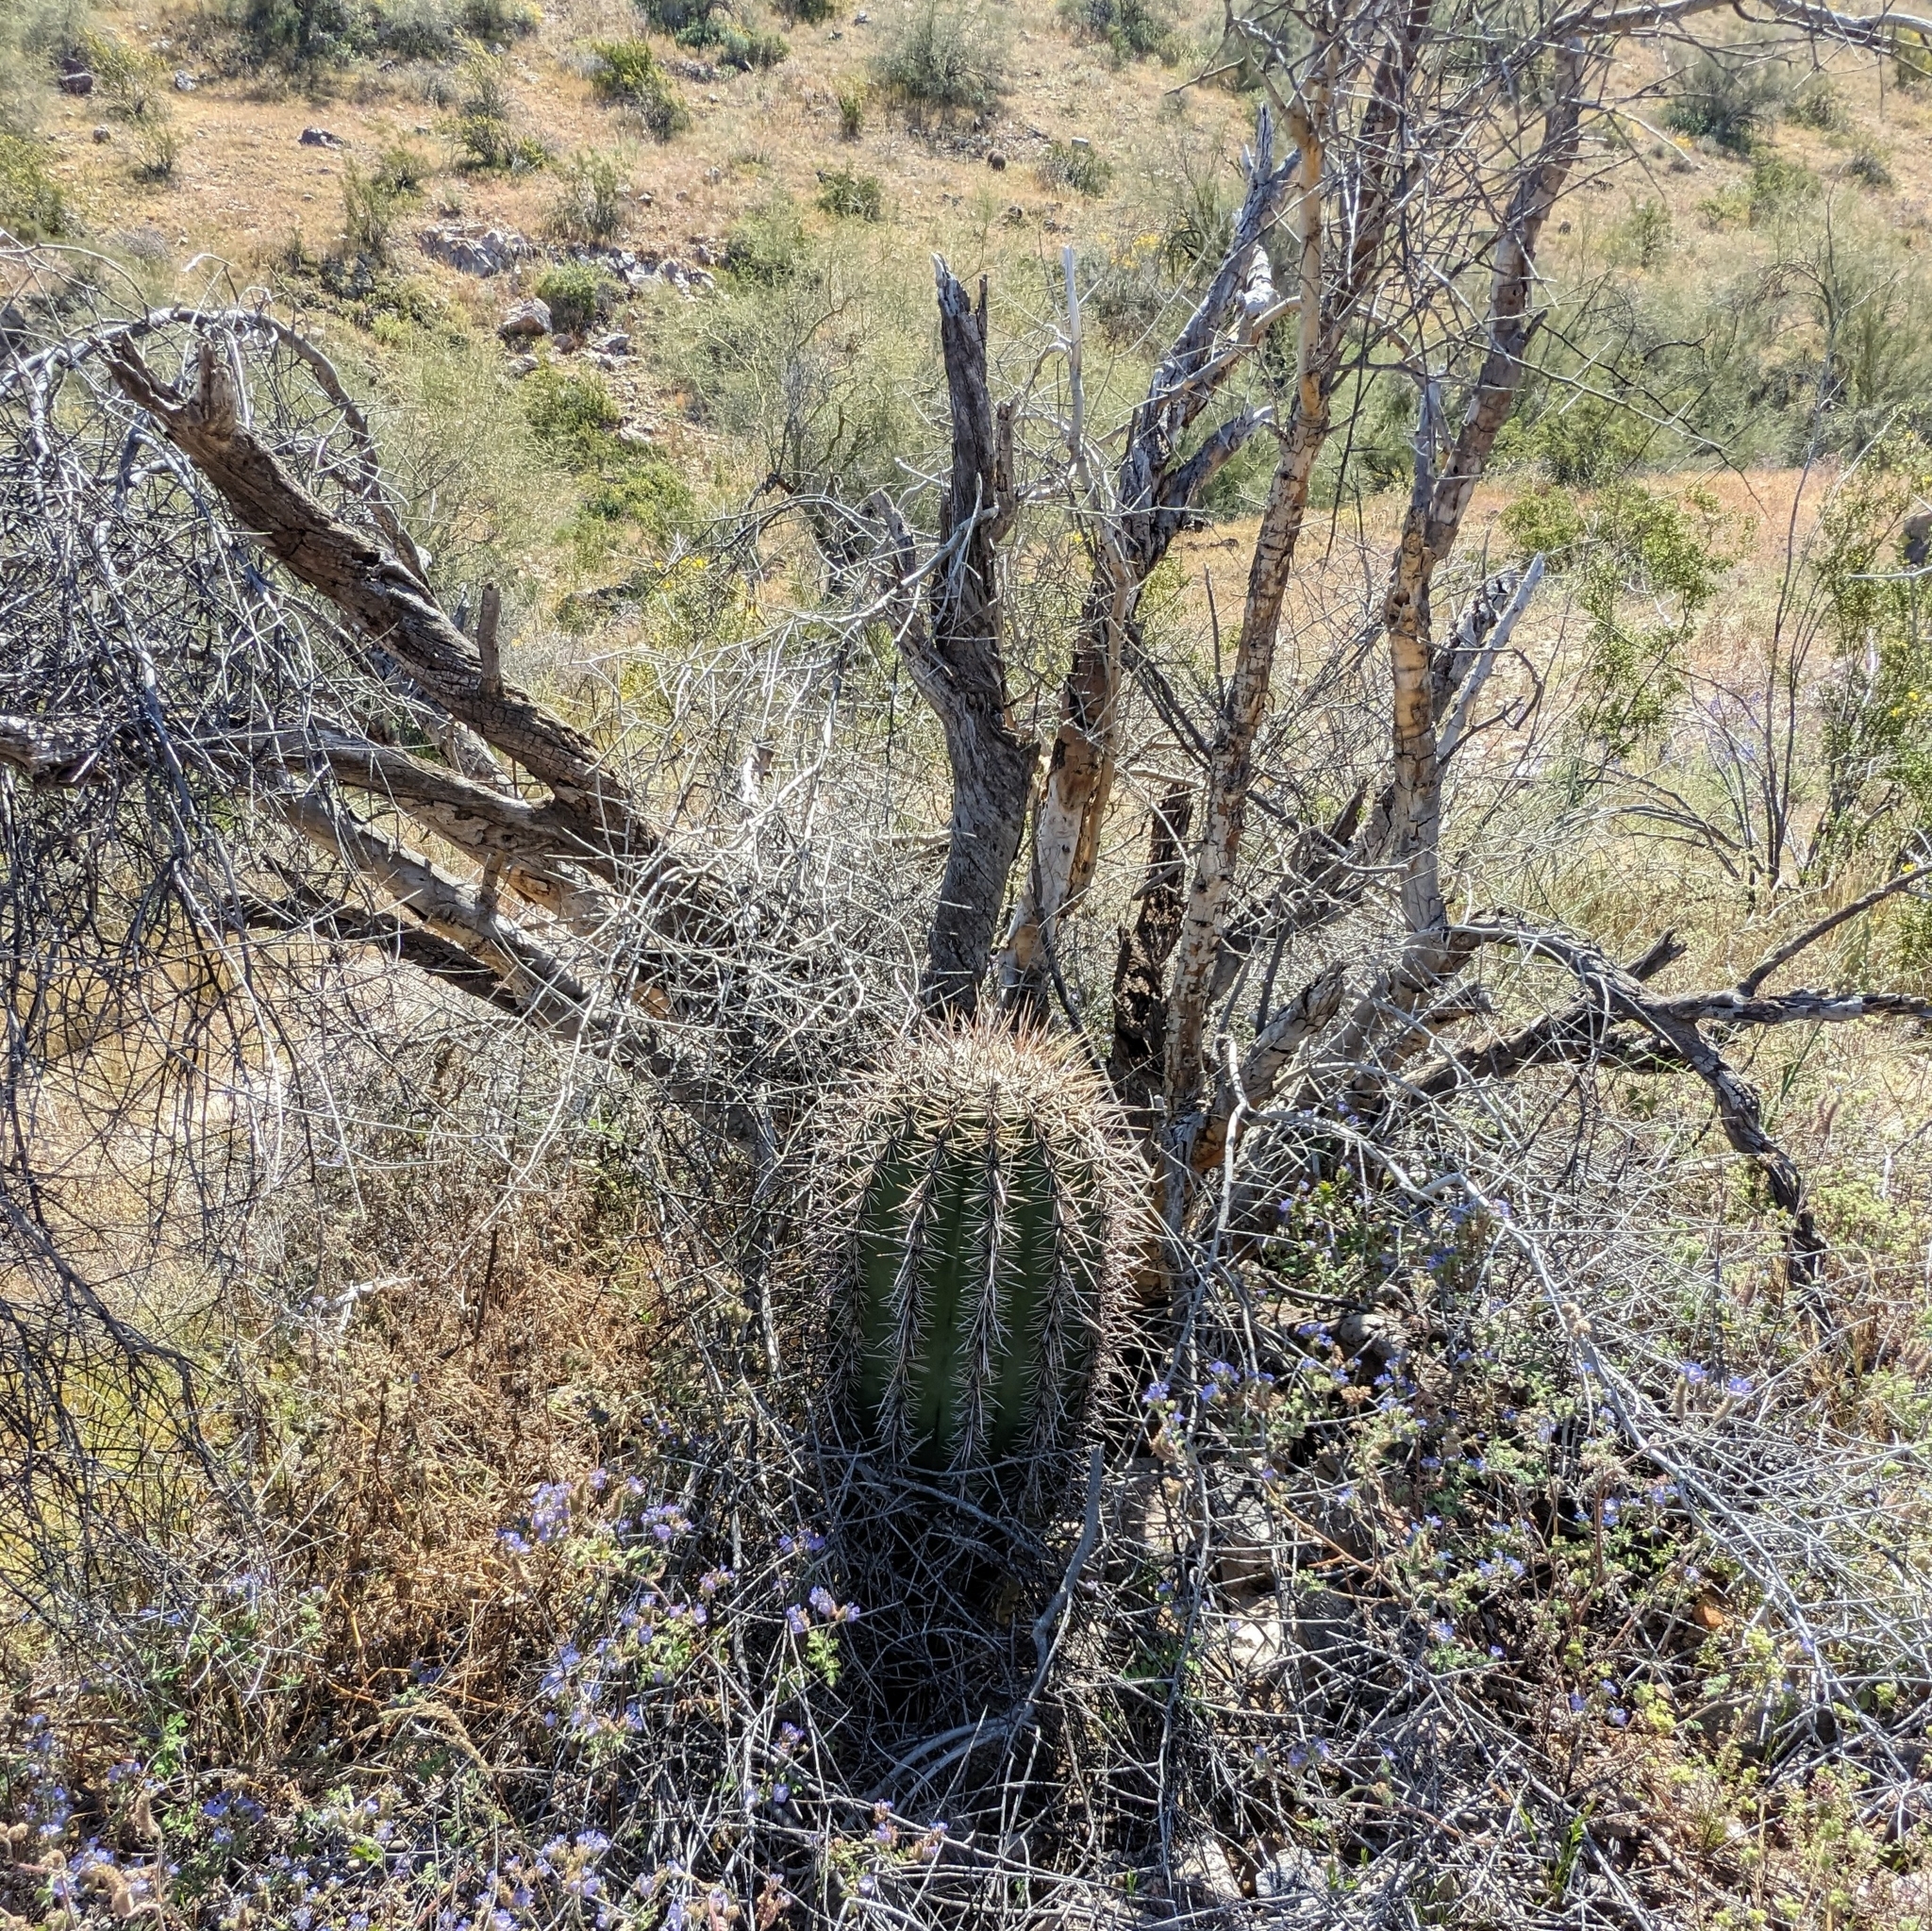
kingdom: Plantae
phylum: Tracheophyta
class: Magnoliopsida
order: Caryophyllales
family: Cactaceae
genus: Carnegiea
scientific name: Carnegiea gigantea
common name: Saguaro
